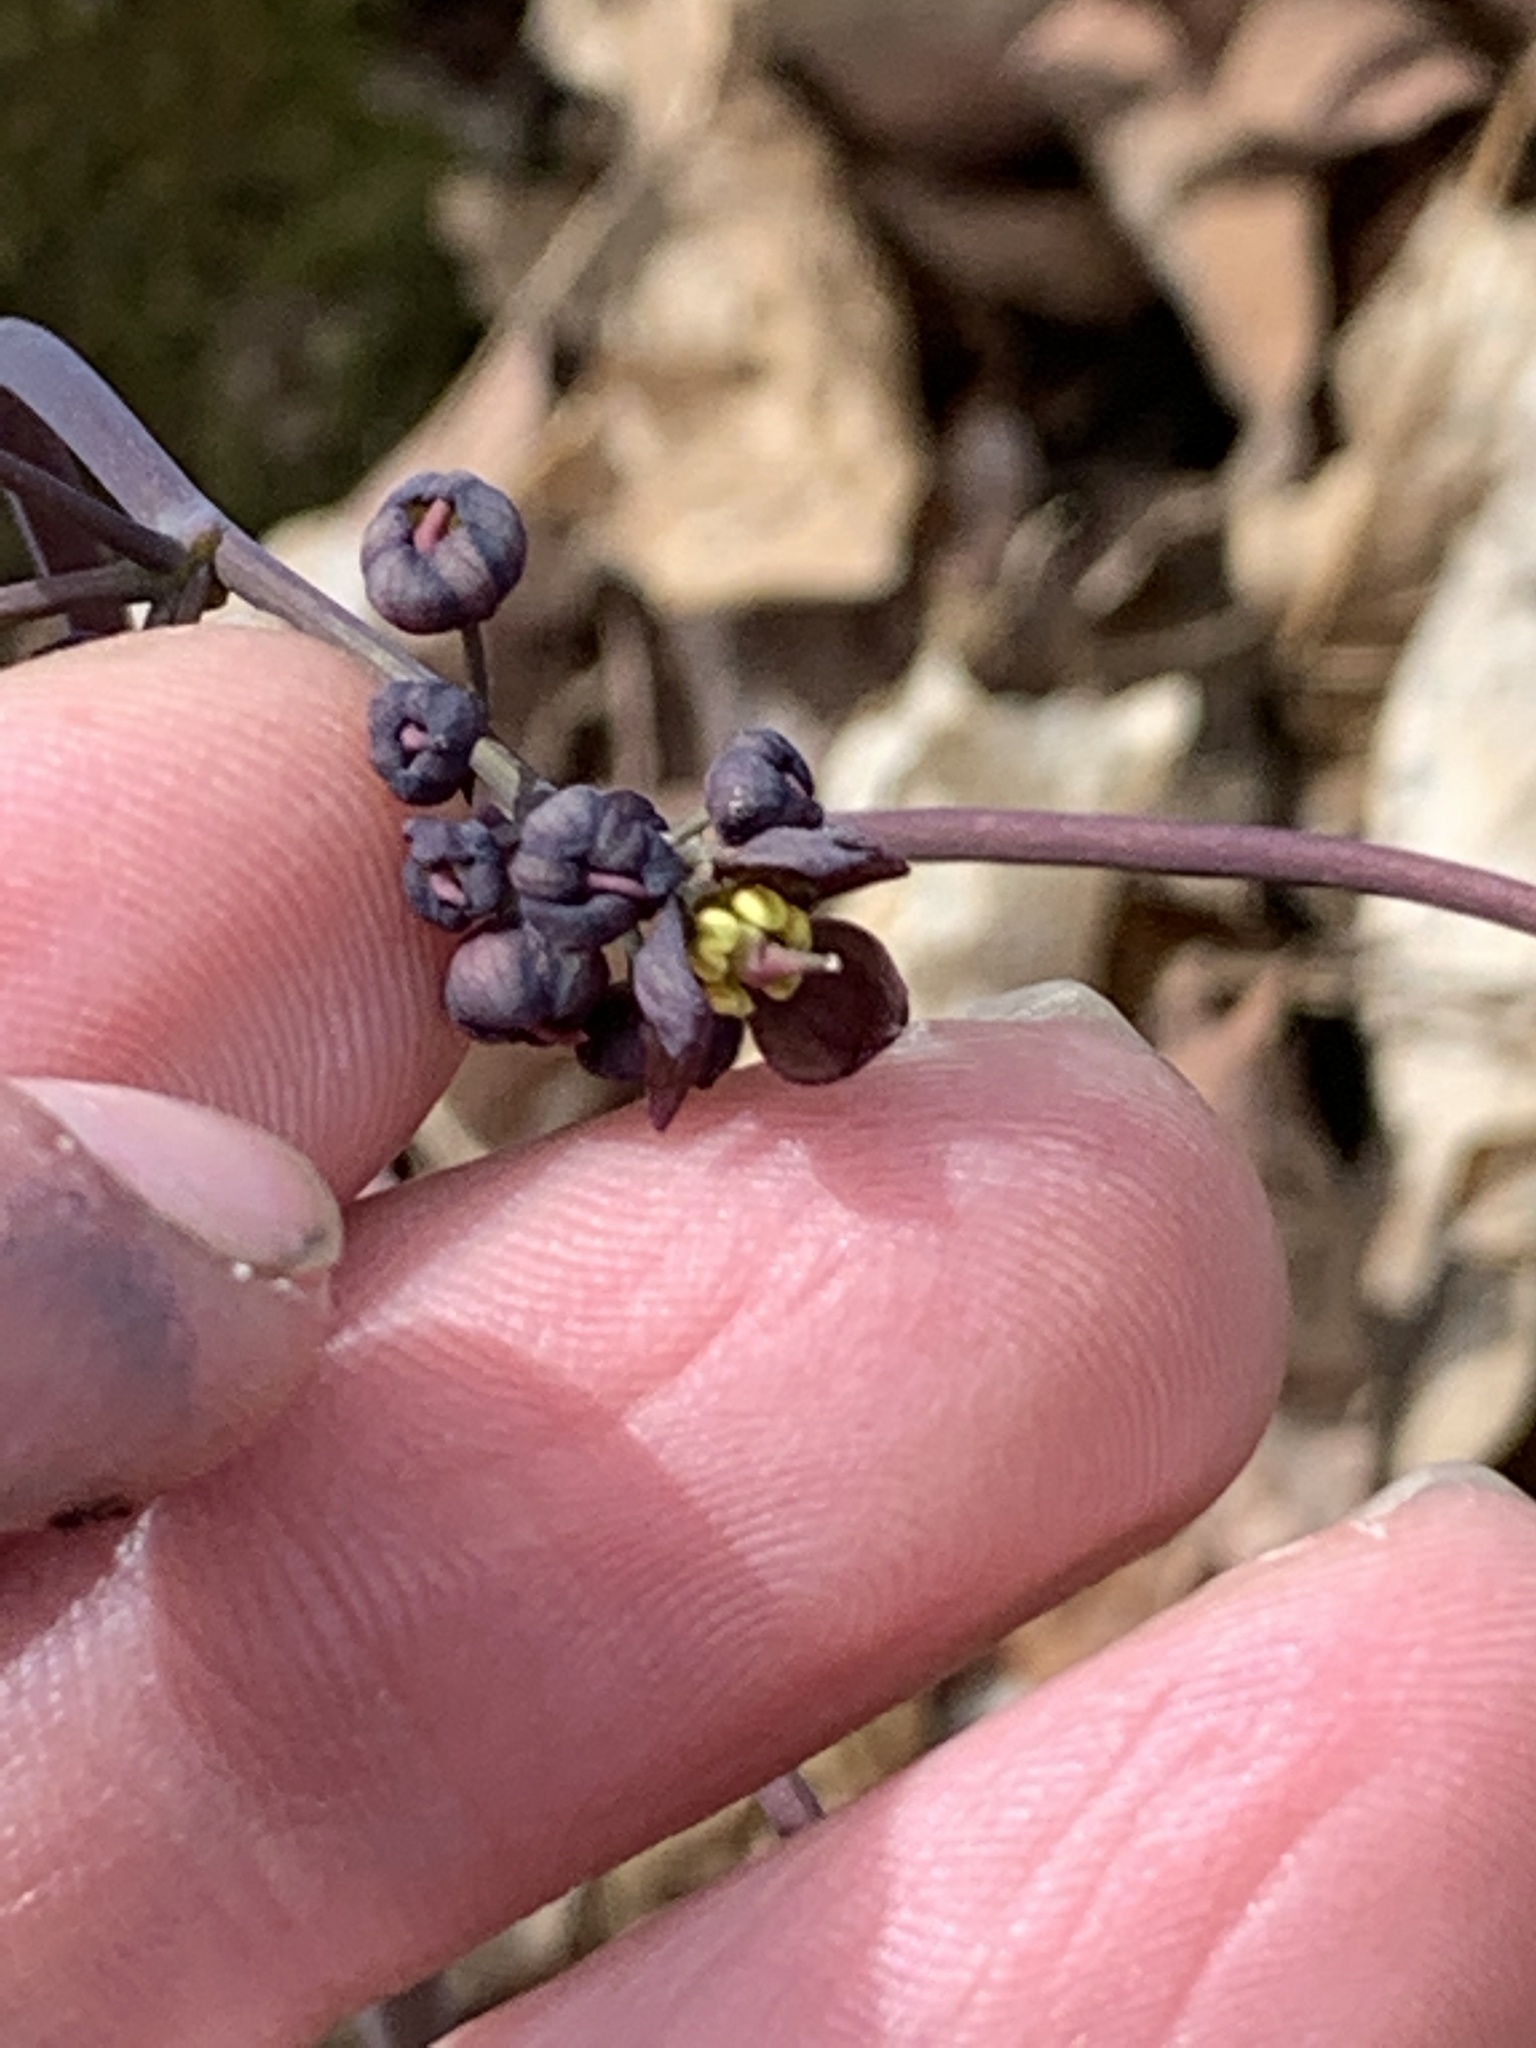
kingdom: Plantae
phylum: Tracheophyta
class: Magnoliopsida
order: Ranunculales
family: Berberidaceae
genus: Caulophyllum
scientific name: Caulophyllum giganteum
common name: Blue cohosh
